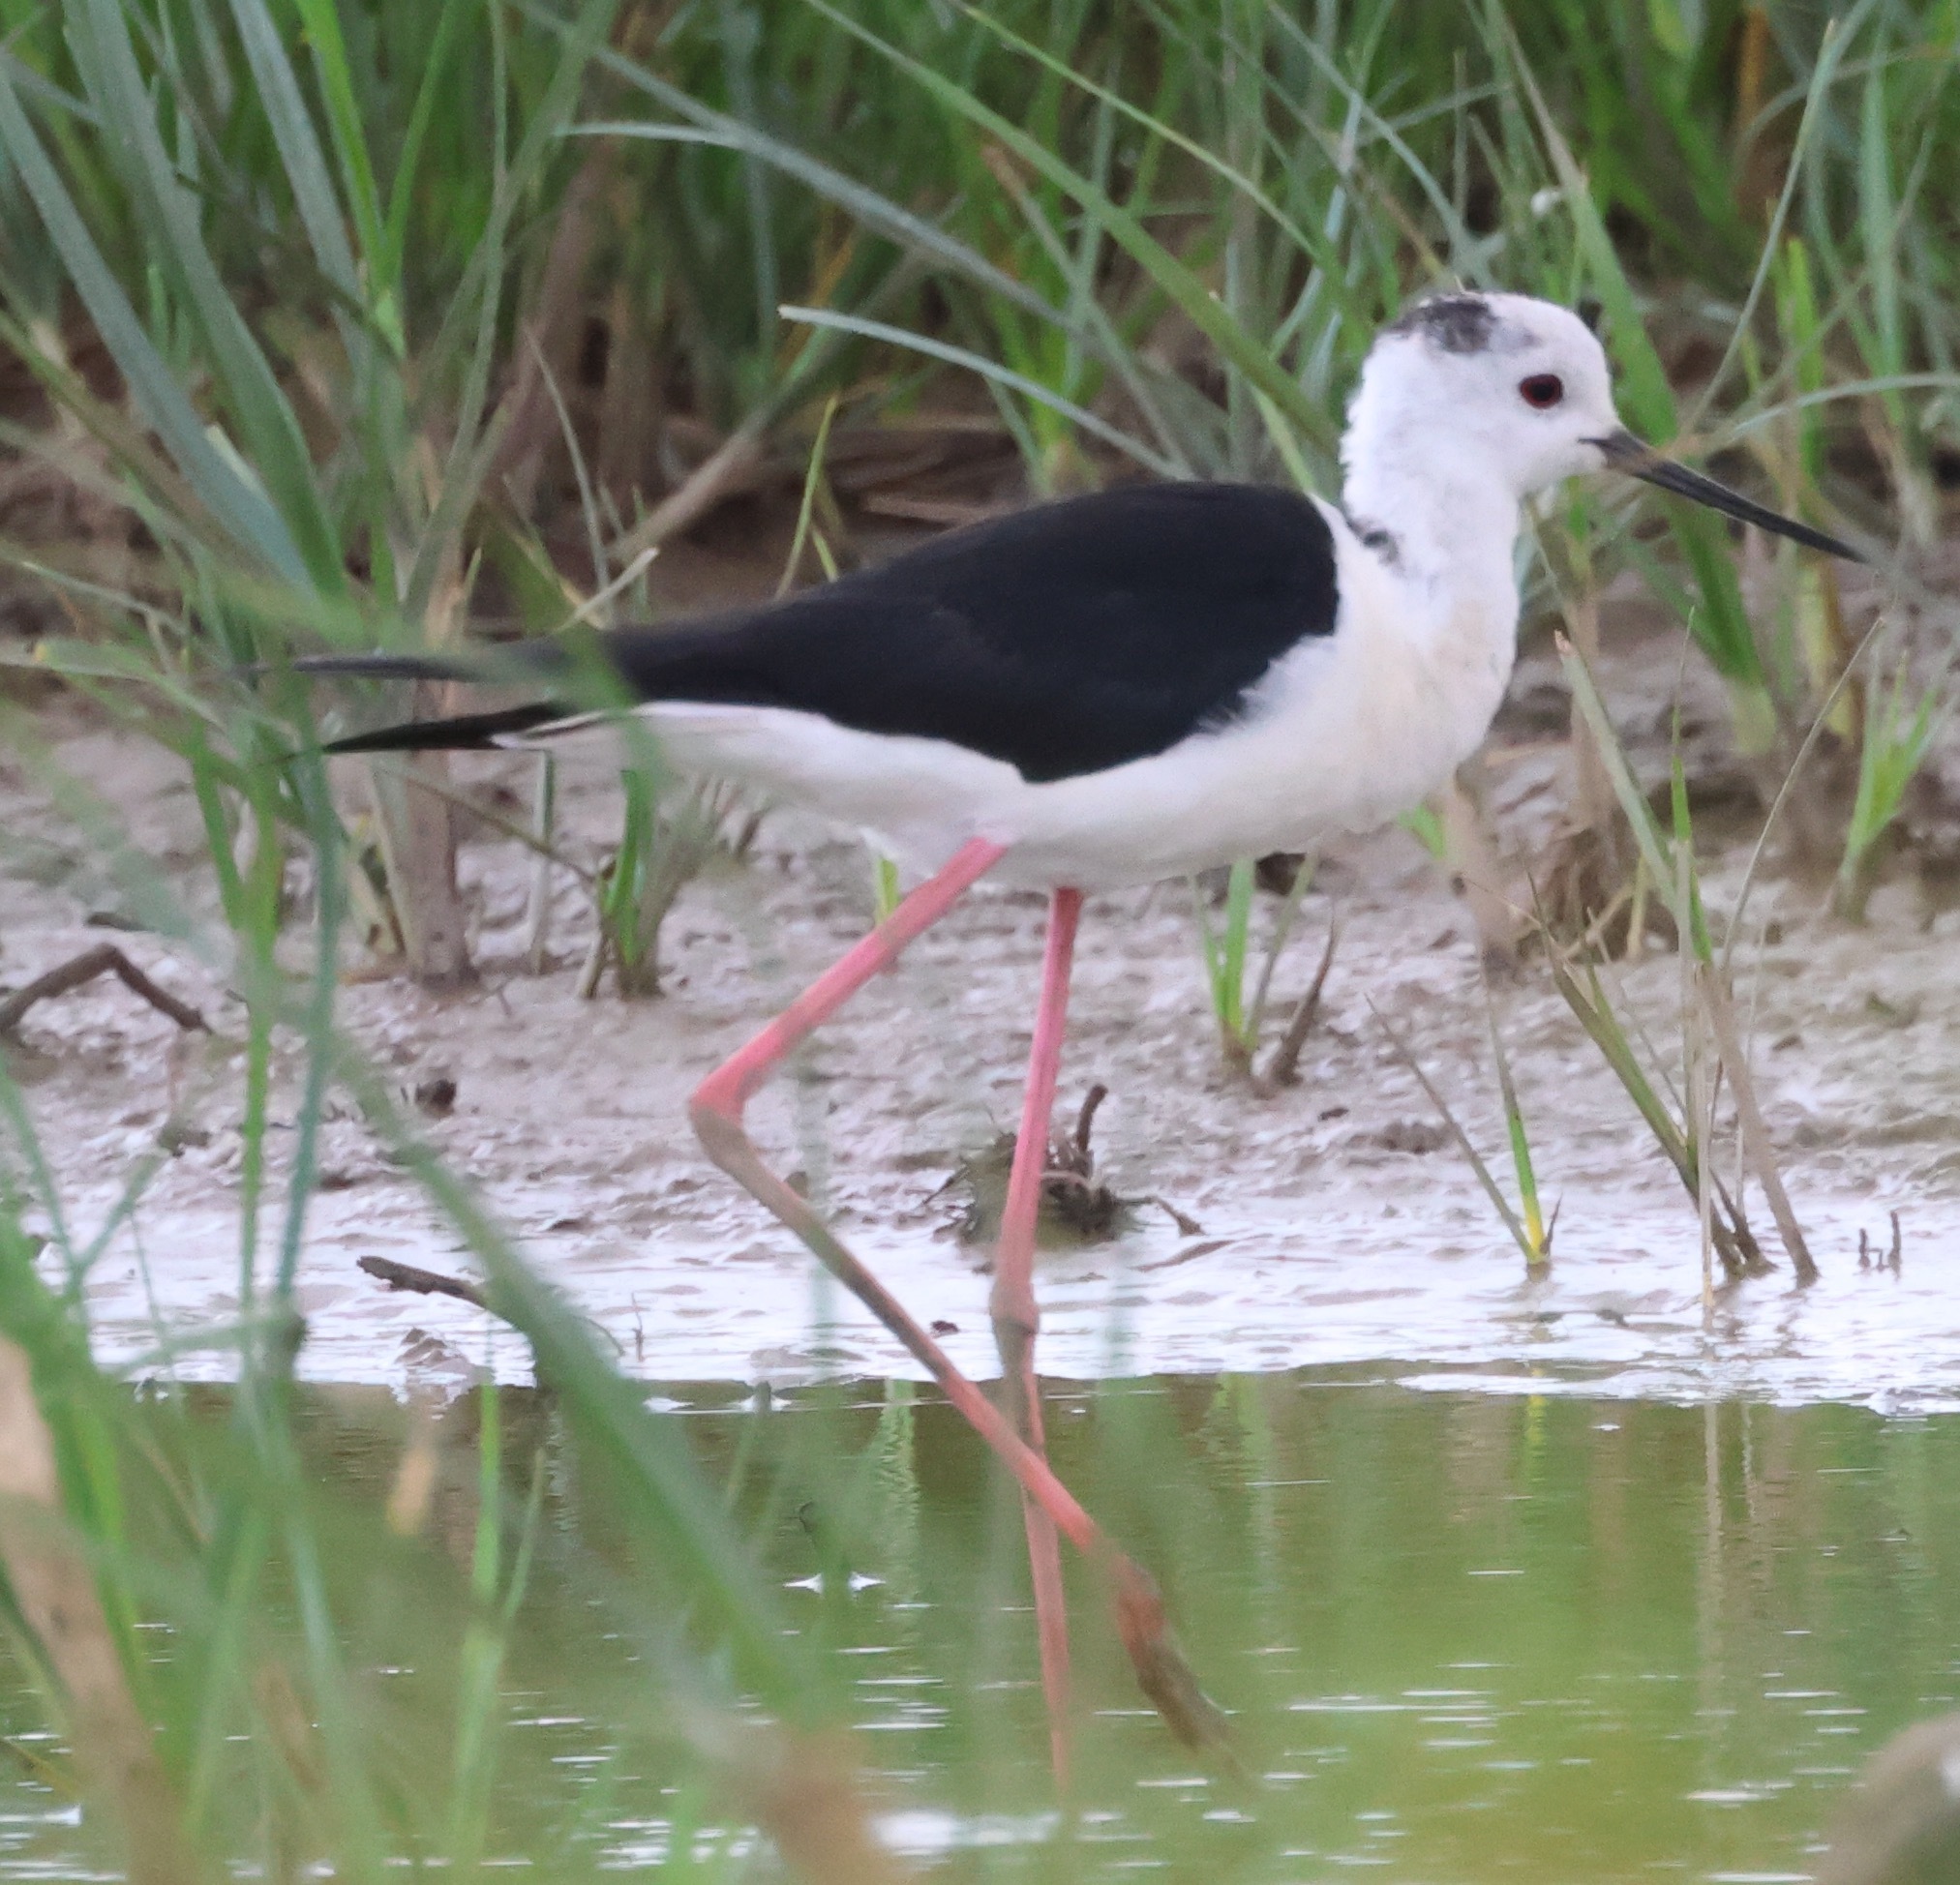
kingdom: Animalia
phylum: Chordata
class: Aves
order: Charadriiformes
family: Recurvirostridae
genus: Himantopus
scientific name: Himantopus himantopus
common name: Black-winged stilt
